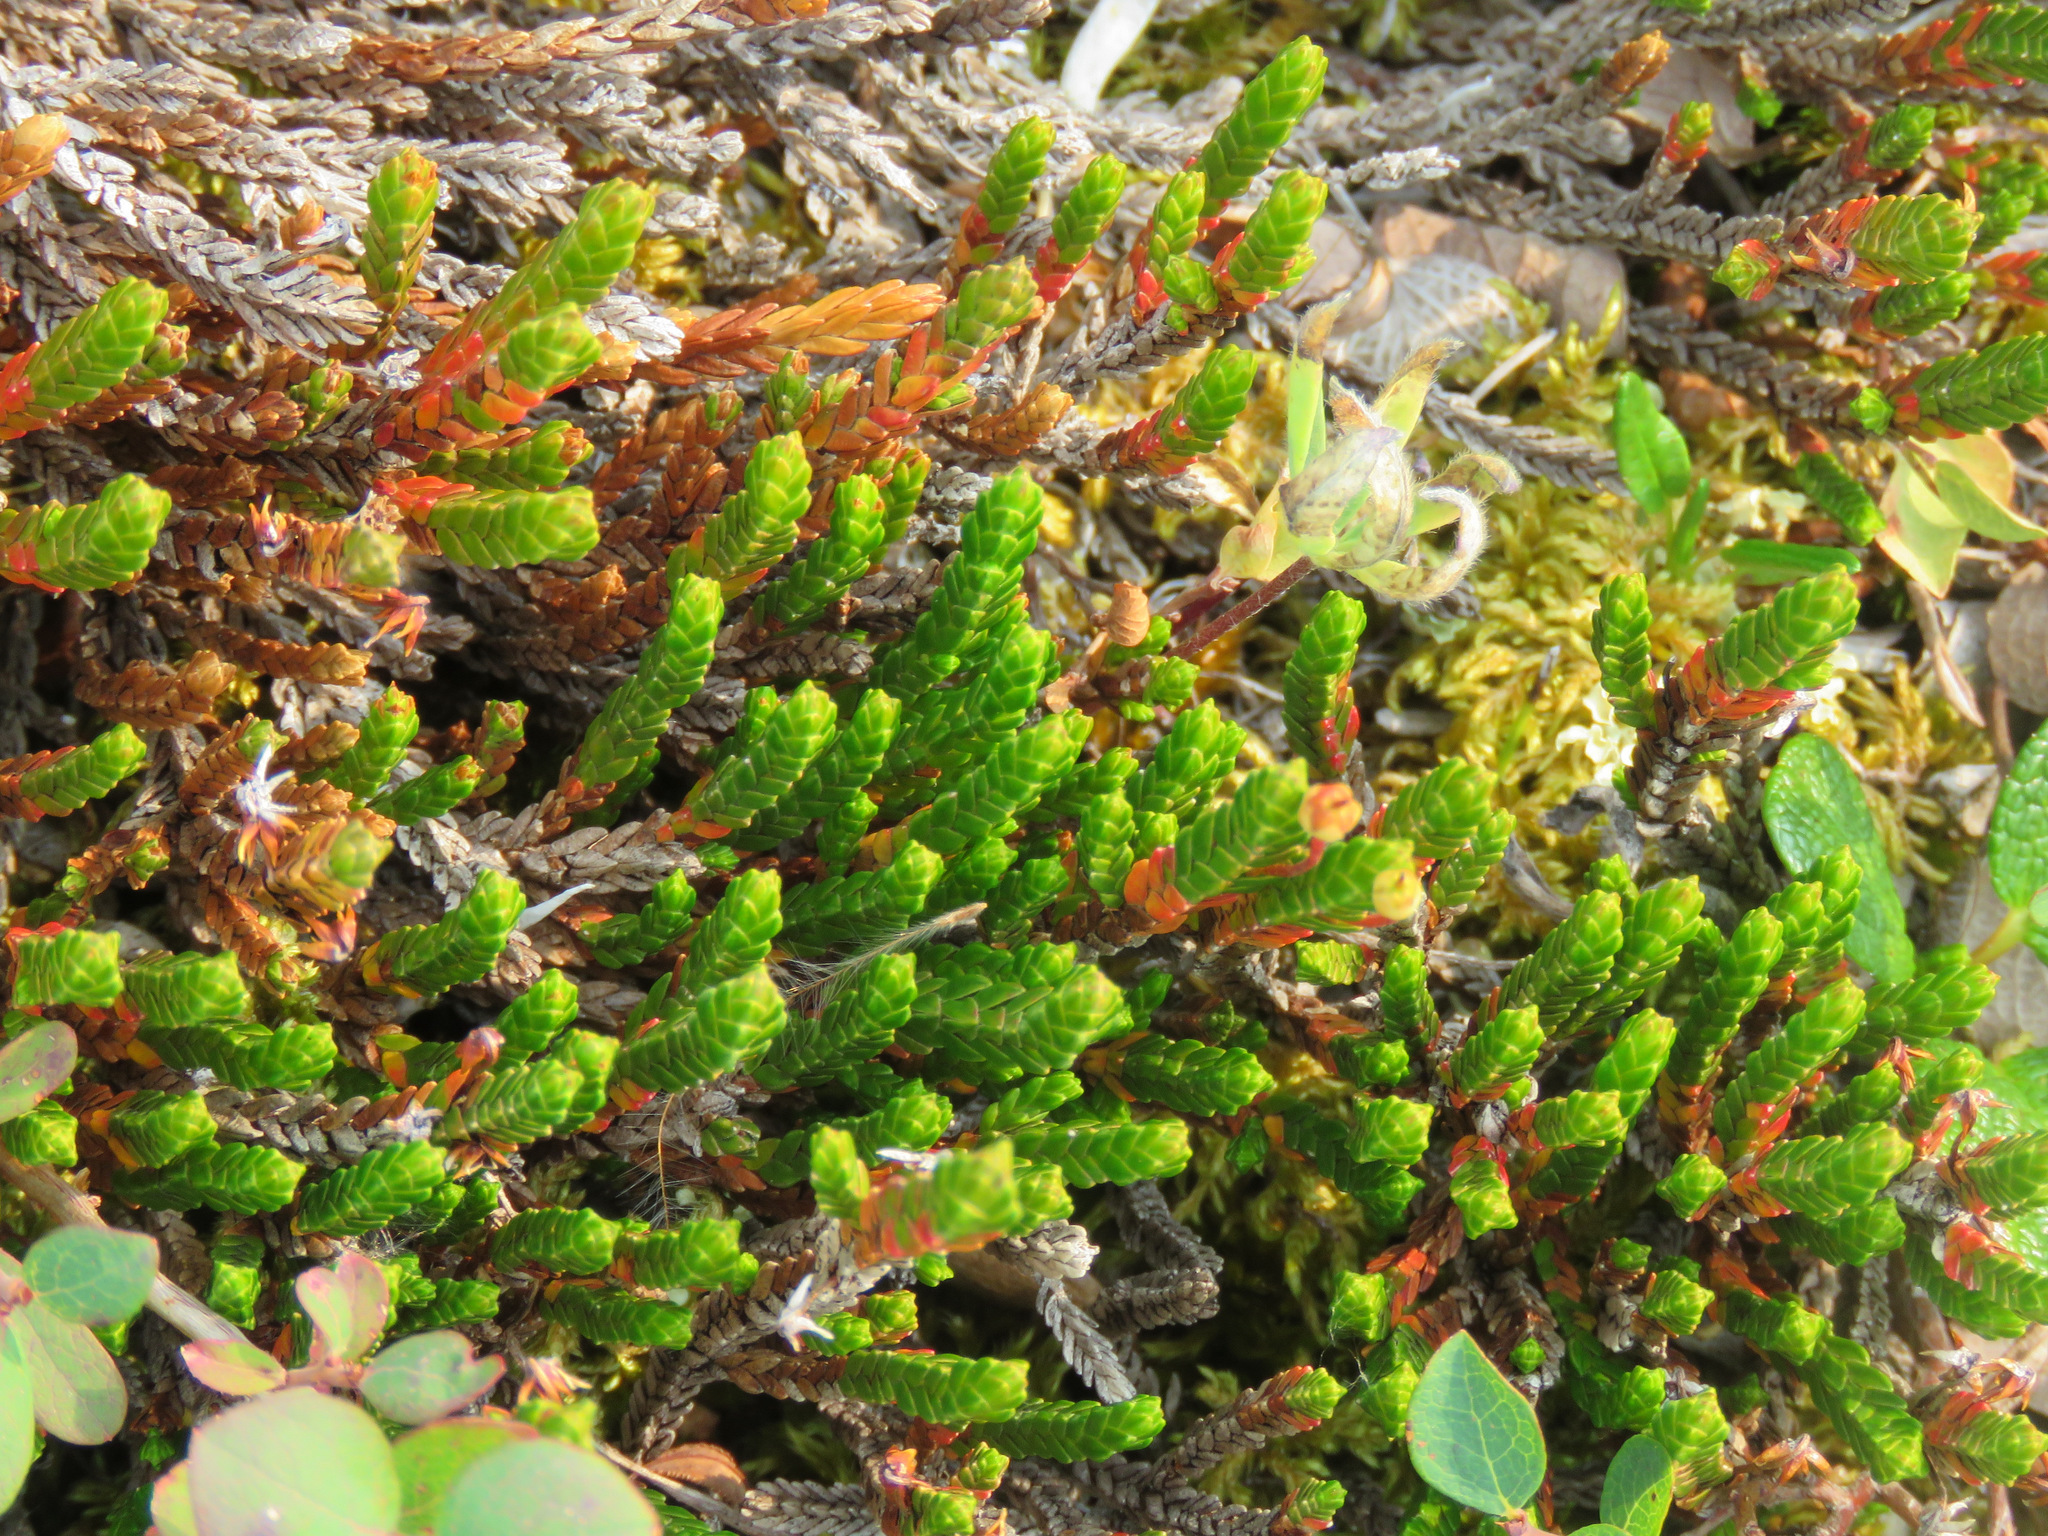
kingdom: Plantae
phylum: Tracheophyta
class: Magnoliopsida
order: Ericales
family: Ericaceae
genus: Cassiope
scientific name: Cassiope tetragona
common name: Arctic bell heather
